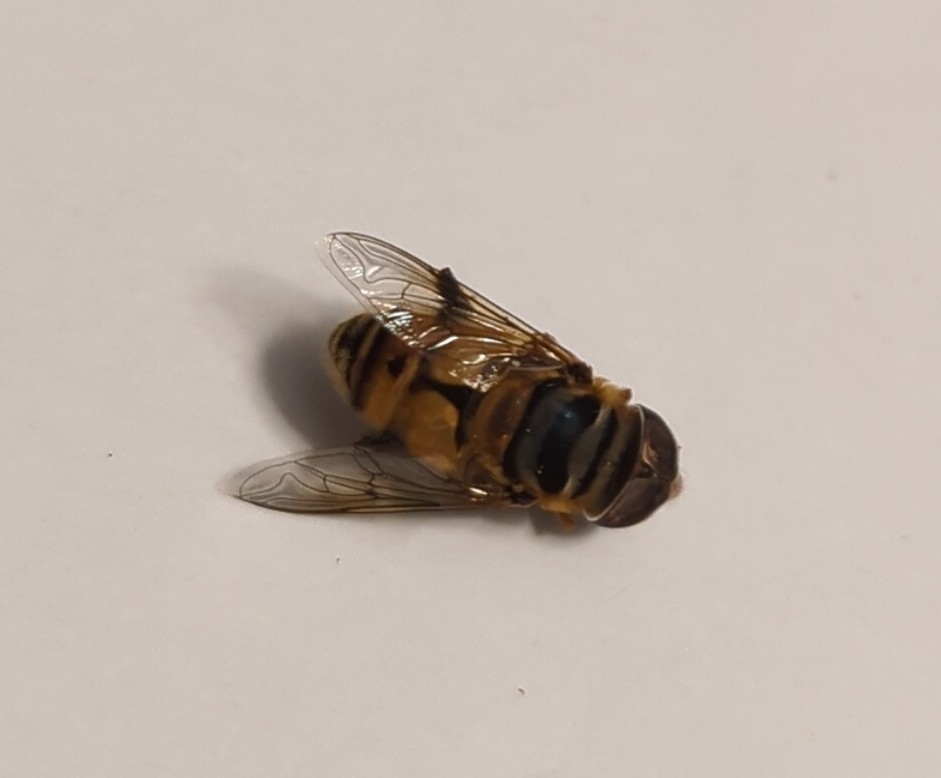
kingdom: Animalia
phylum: Arthropoda
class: Insecta
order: Diptera
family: Syrphidae
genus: Palpada
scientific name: Palpada vinetorum
